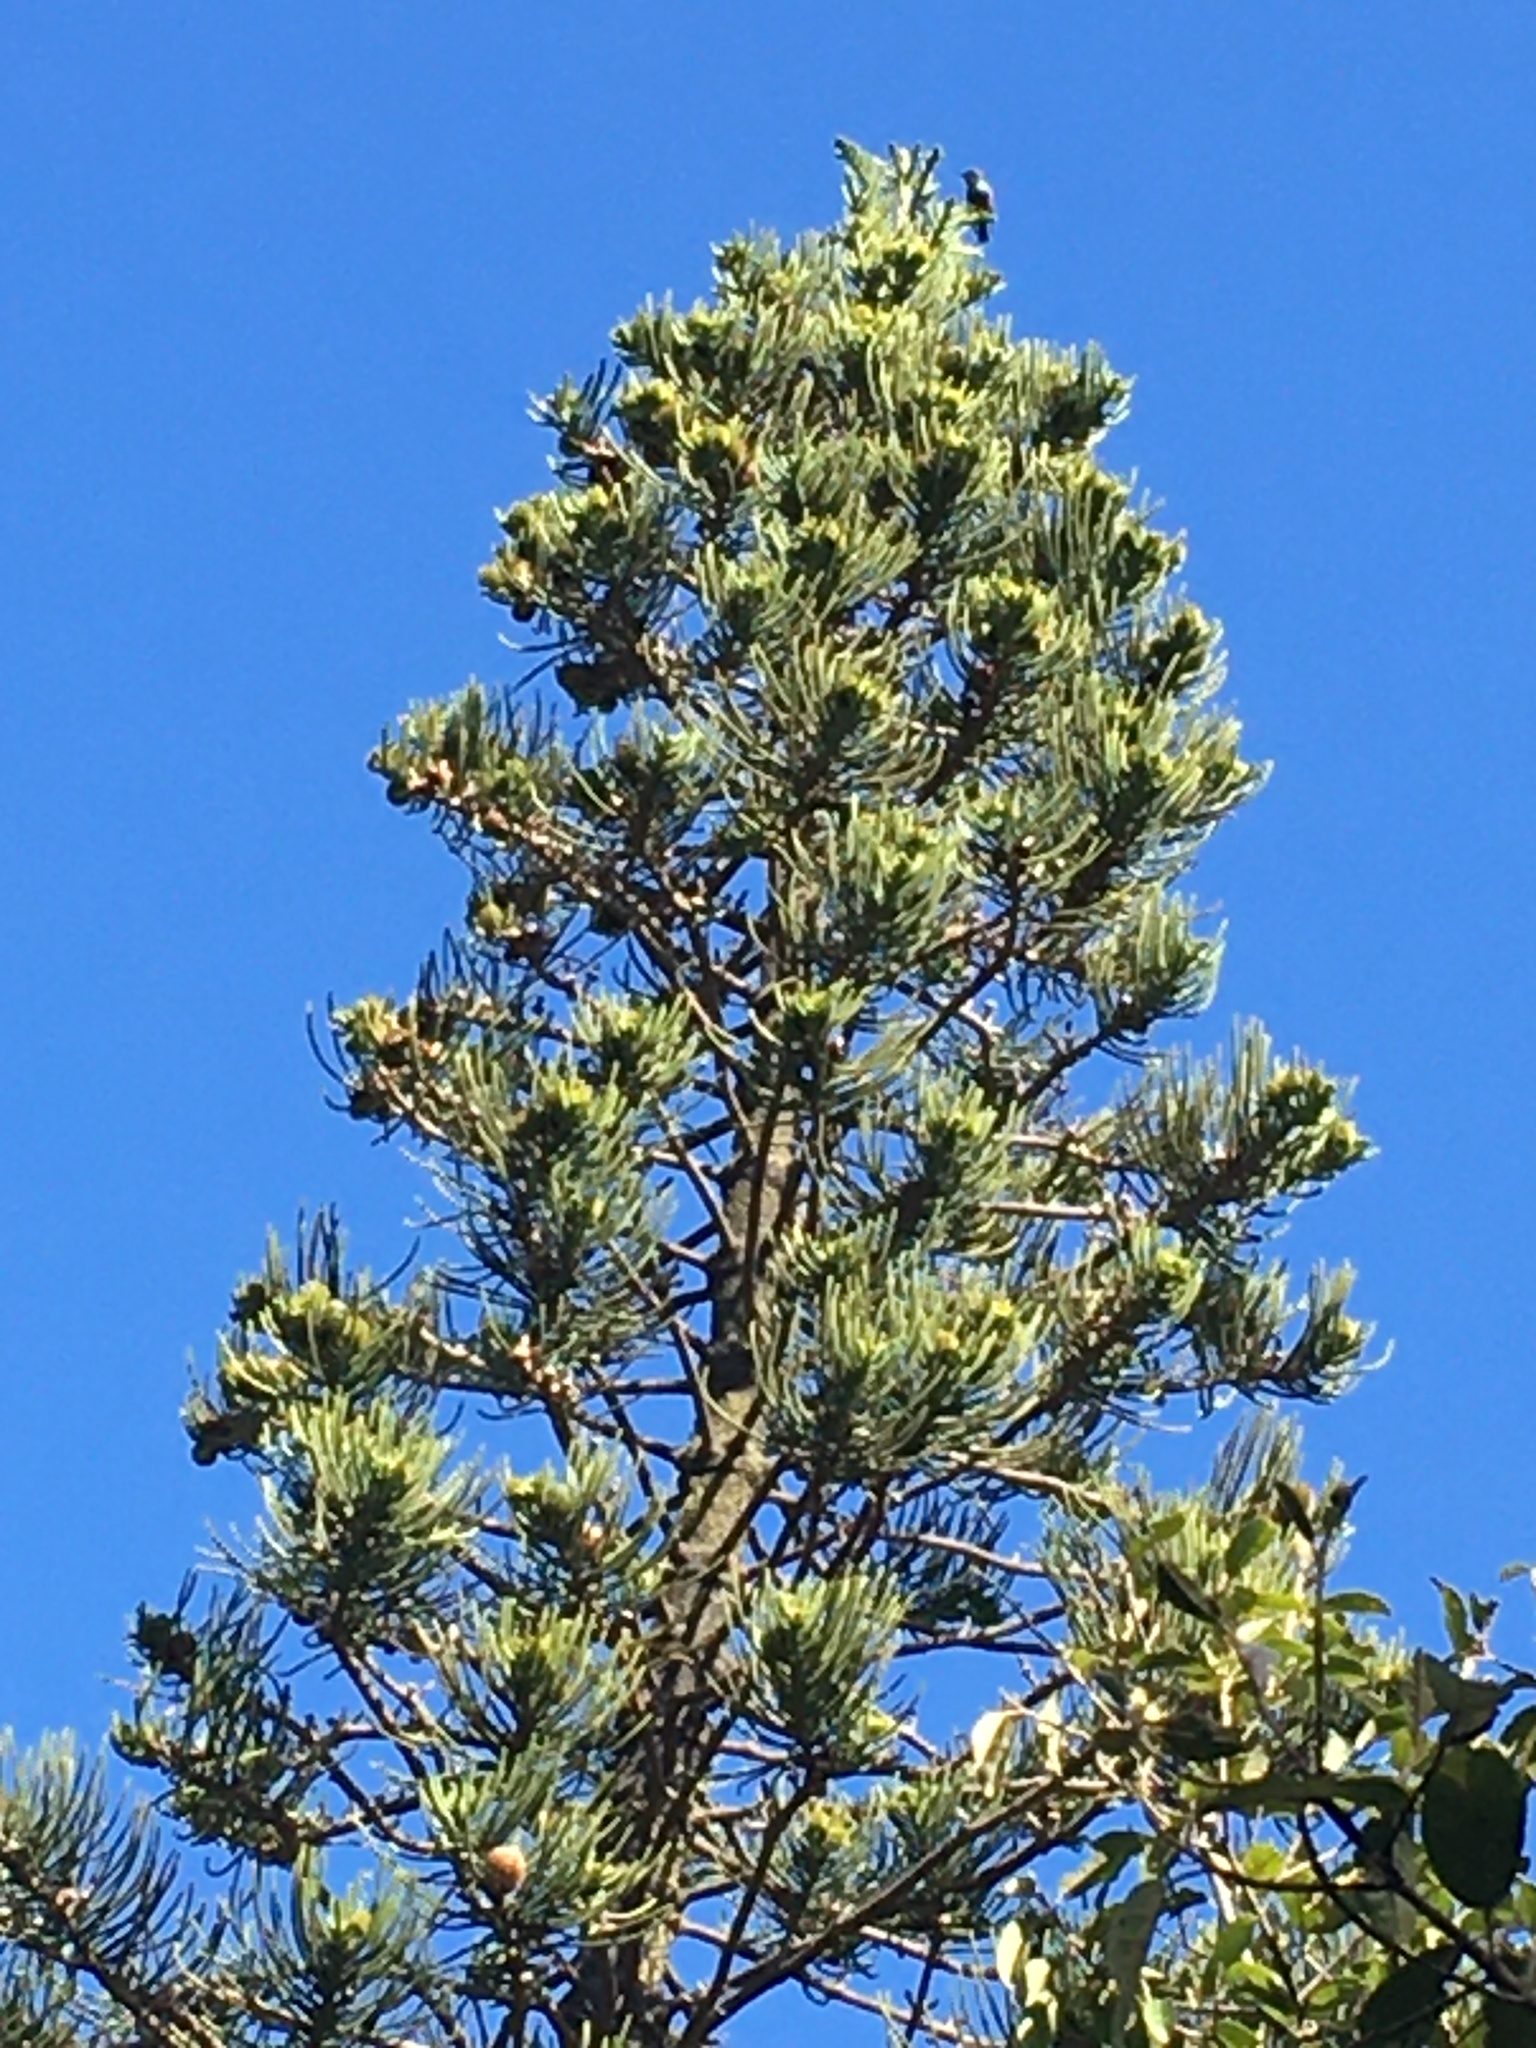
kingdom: Animalia
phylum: Chordata
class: Aves
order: Passeriformes
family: Sturnidae
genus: Sturnus
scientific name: Sturnus vulgaris
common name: Common starling
